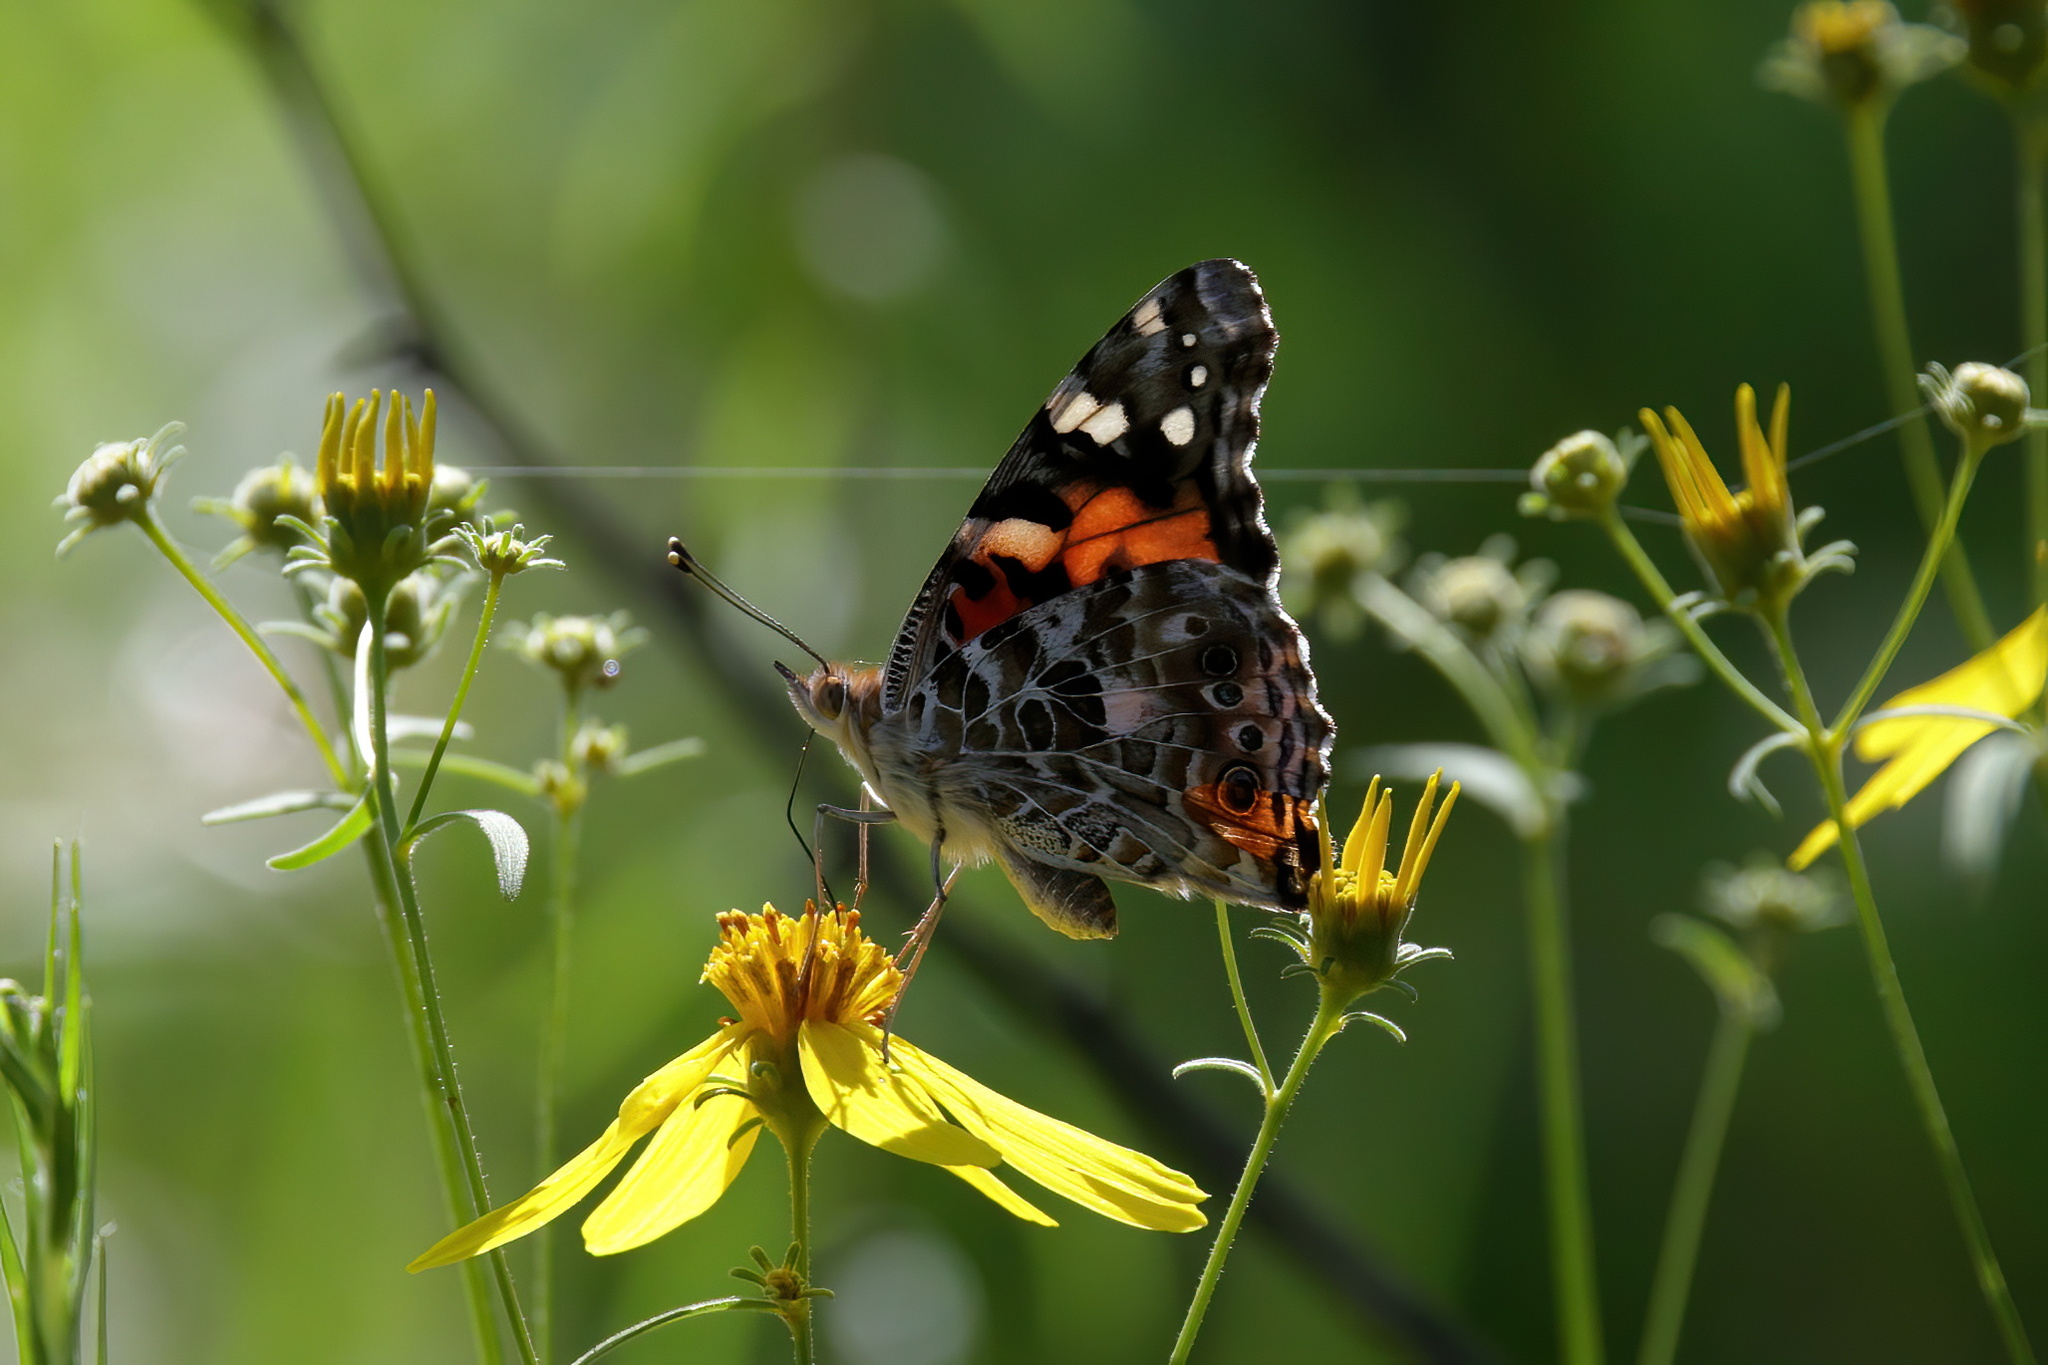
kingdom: Animalia
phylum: Arthropoda
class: Insecta
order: Lepidoptera
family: Nymphalidae
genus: Vanessa
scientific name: Vanessa cardui
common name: Painted lady
